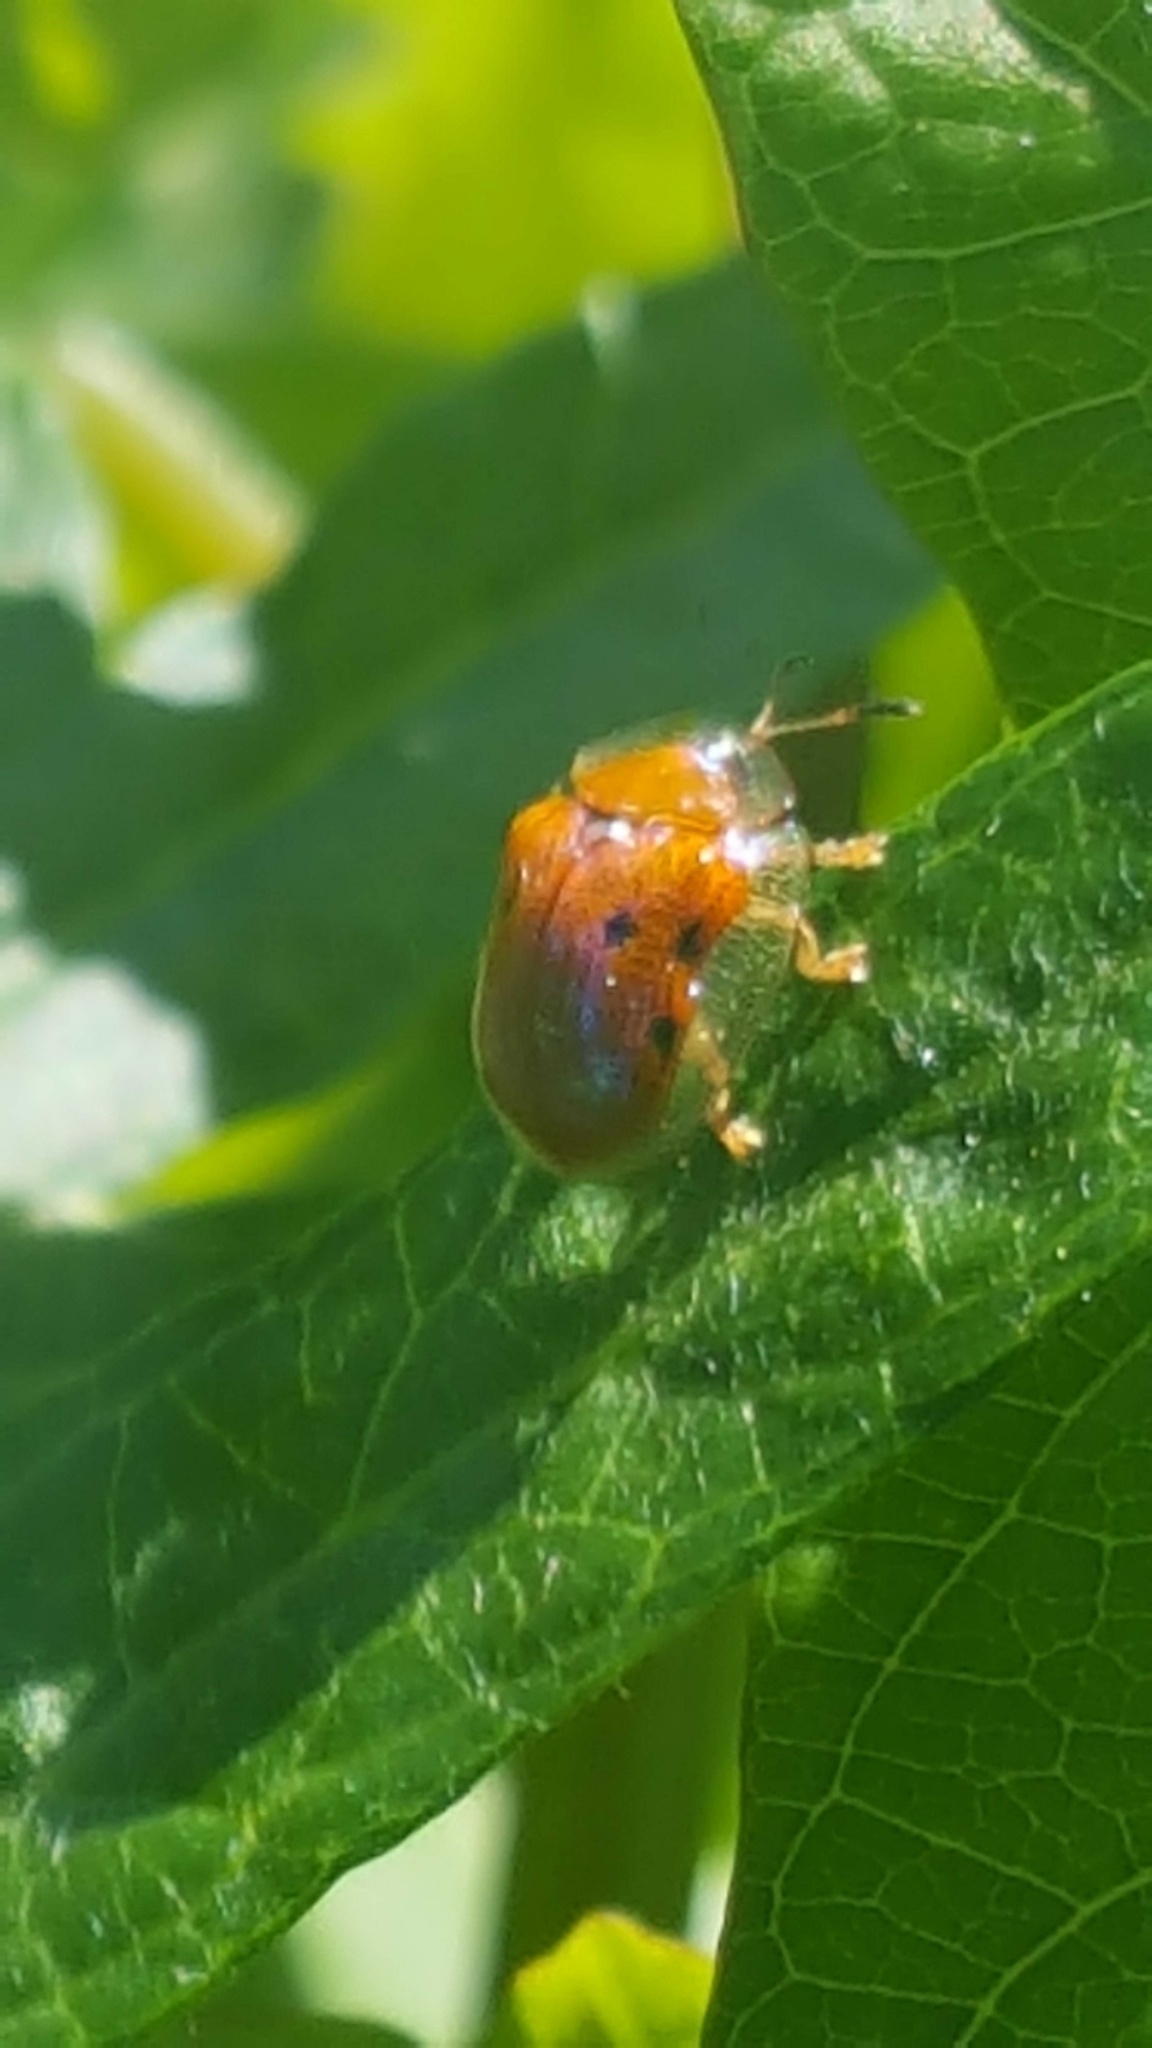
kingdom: Animalia
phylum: Arthropoda
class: Insecta
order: Coleoptera
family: Chrysomelidae
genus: Charidotella
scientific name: Charidotella sexpunctata
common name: Golden tortoise beetle
